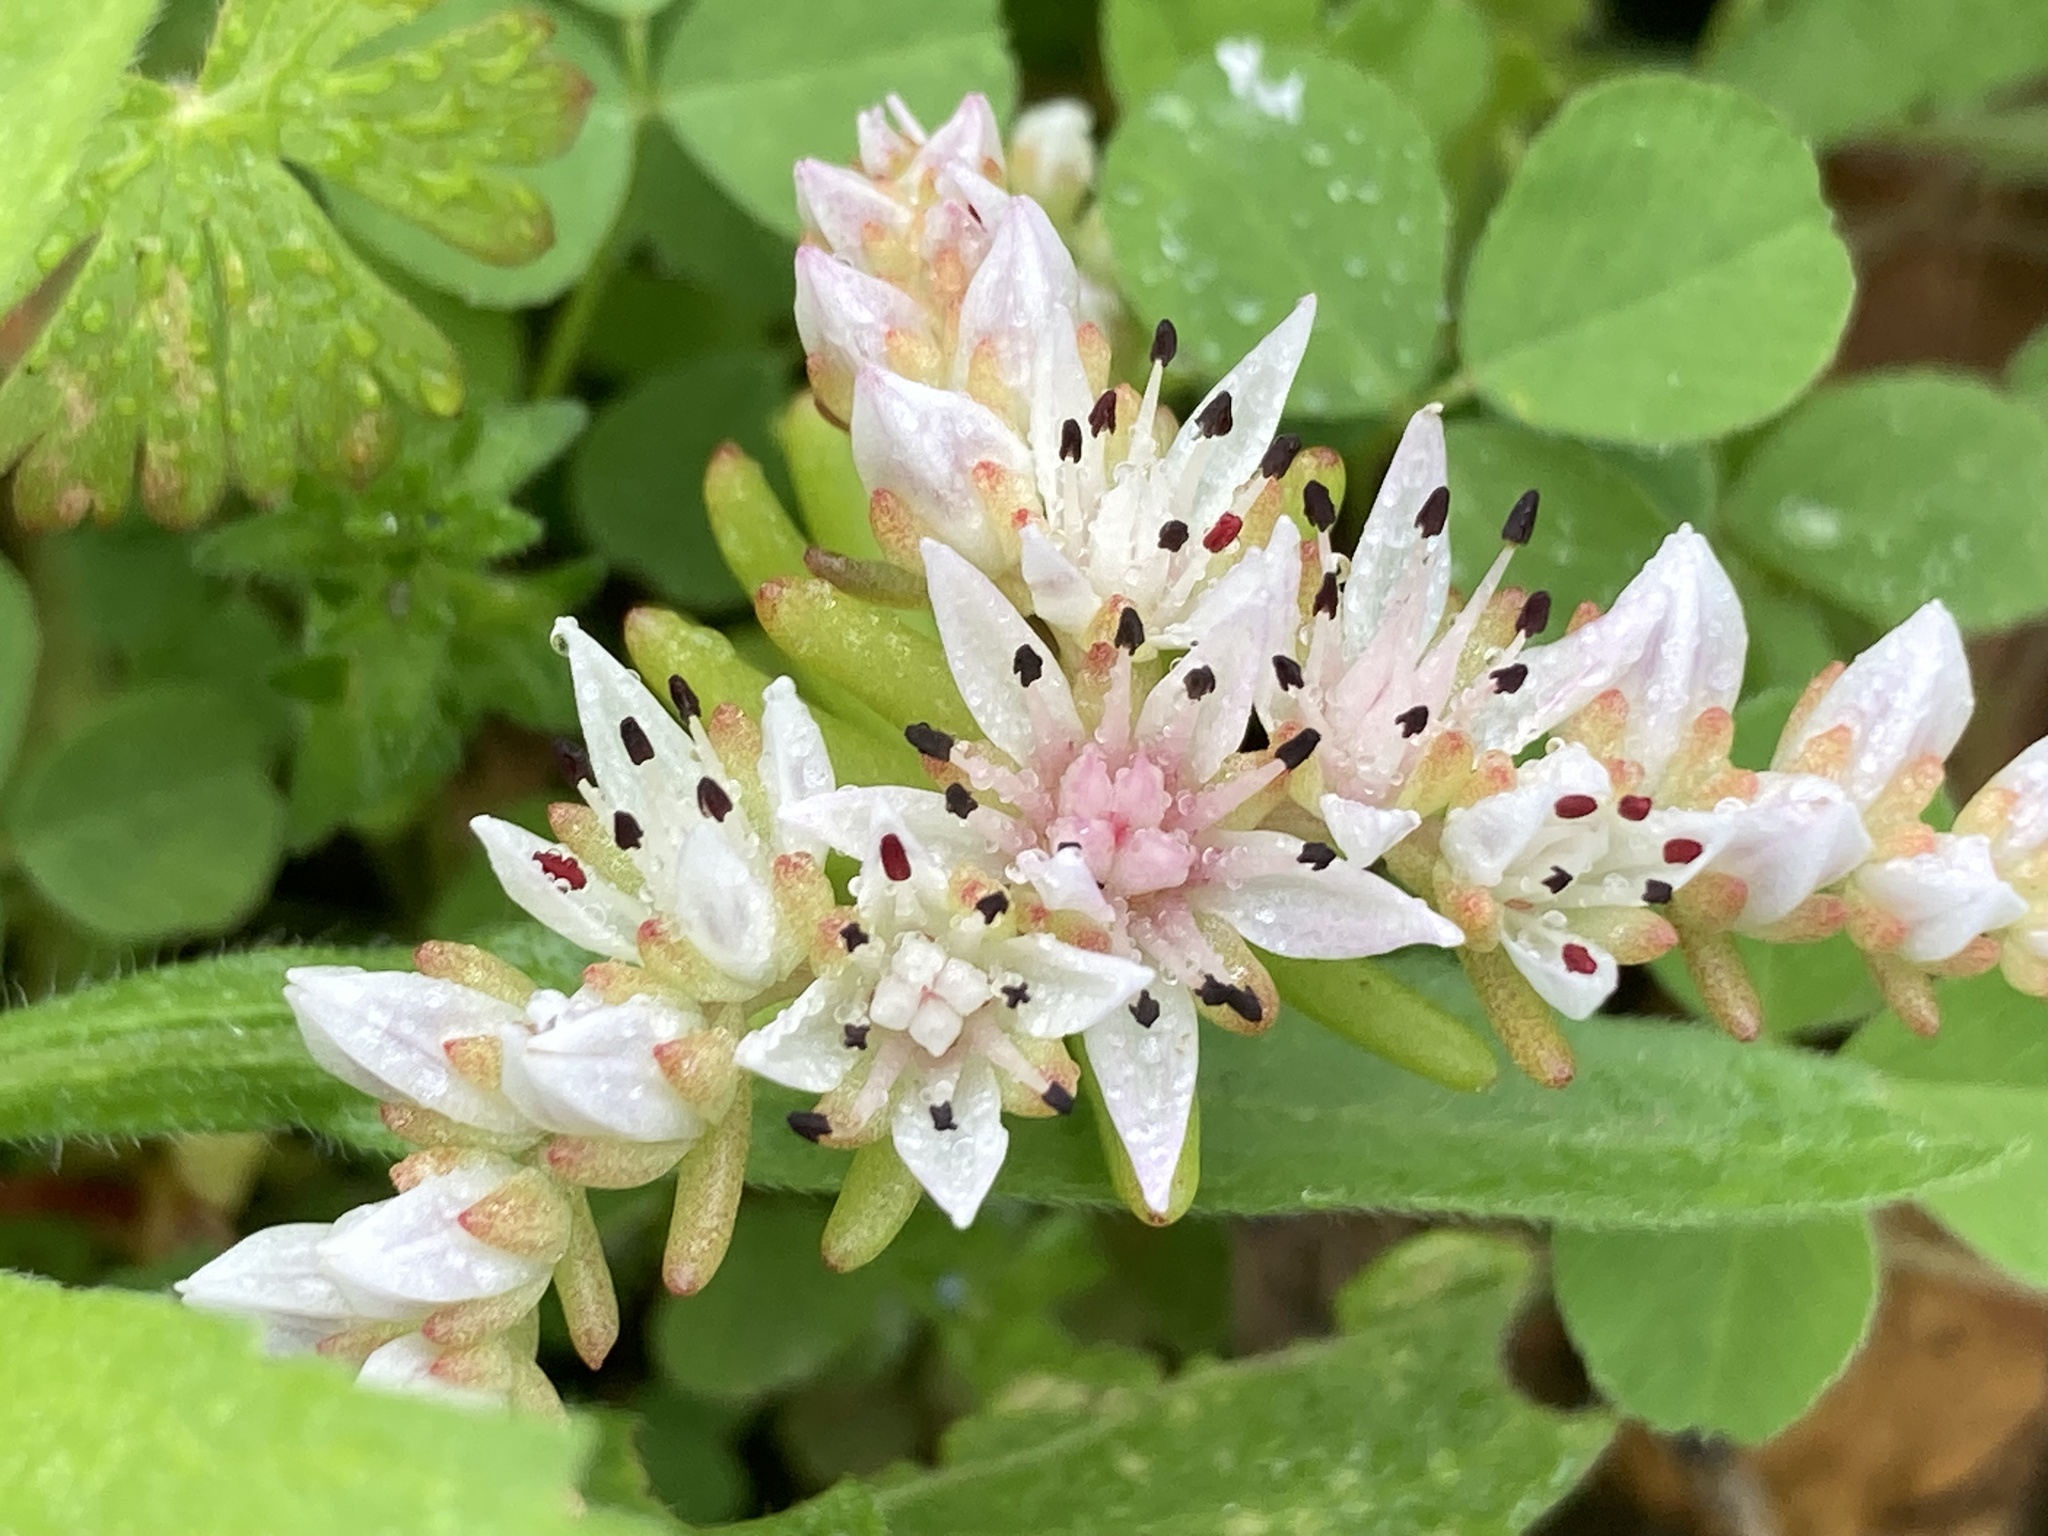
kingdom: Plantae
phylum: Tracheophyta
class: Magnoliopsida
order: Saxifragales
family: Crassulaceae
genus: Sedum
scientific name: Sedum pulchellum
